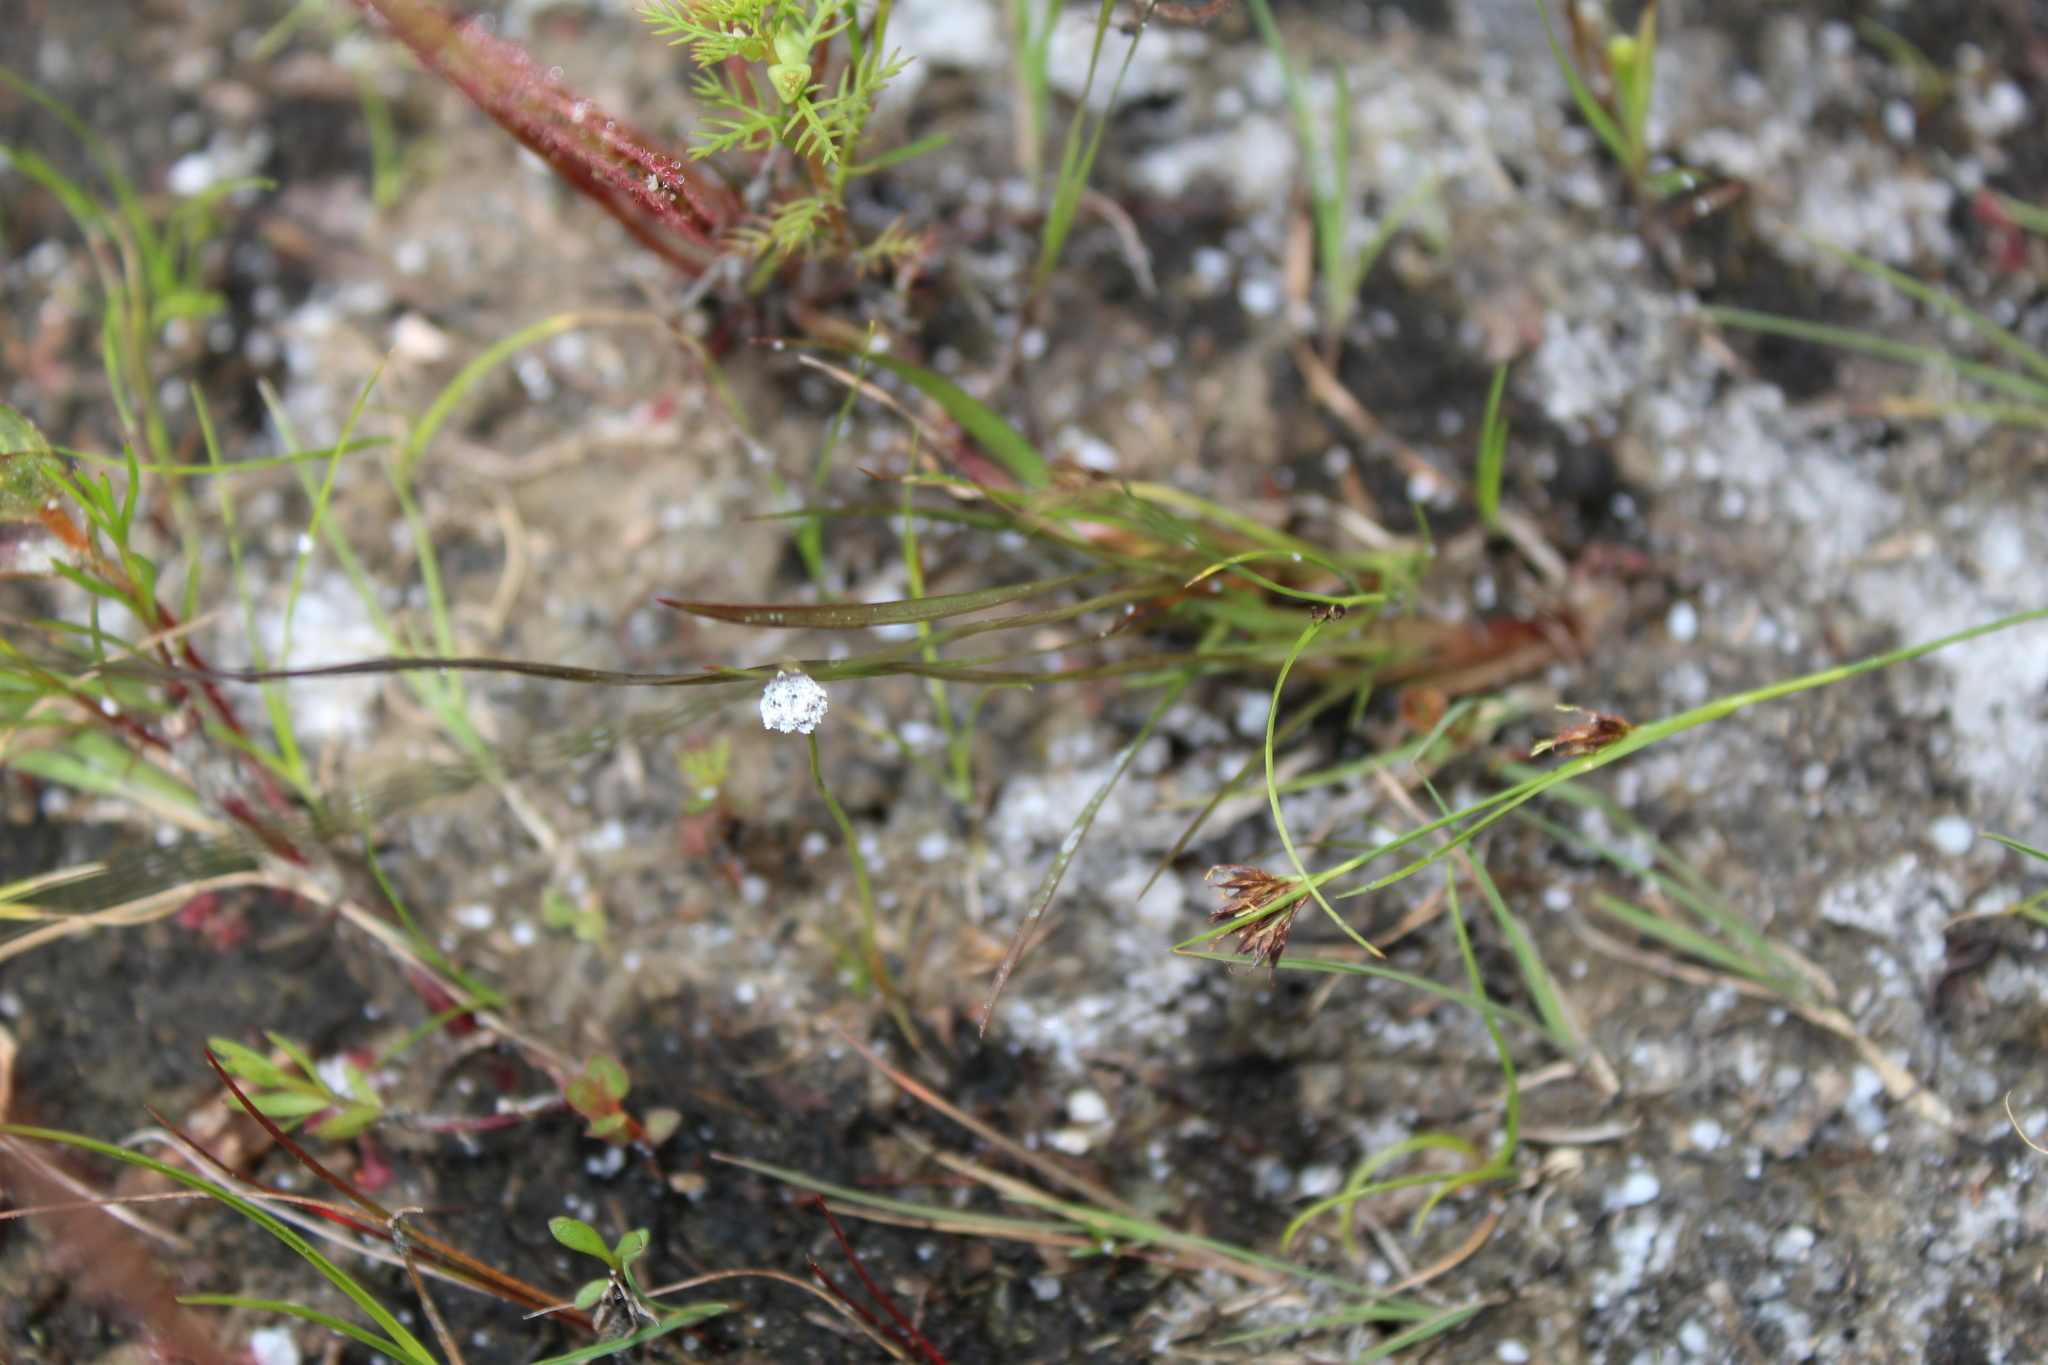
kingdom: Plantae
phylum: Tracheophyta
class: Liliopsida
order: Poales
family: Eriocaulaceae
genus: Eriocaulon
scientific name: Eriocaulon aquaticum
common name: Pipewort
